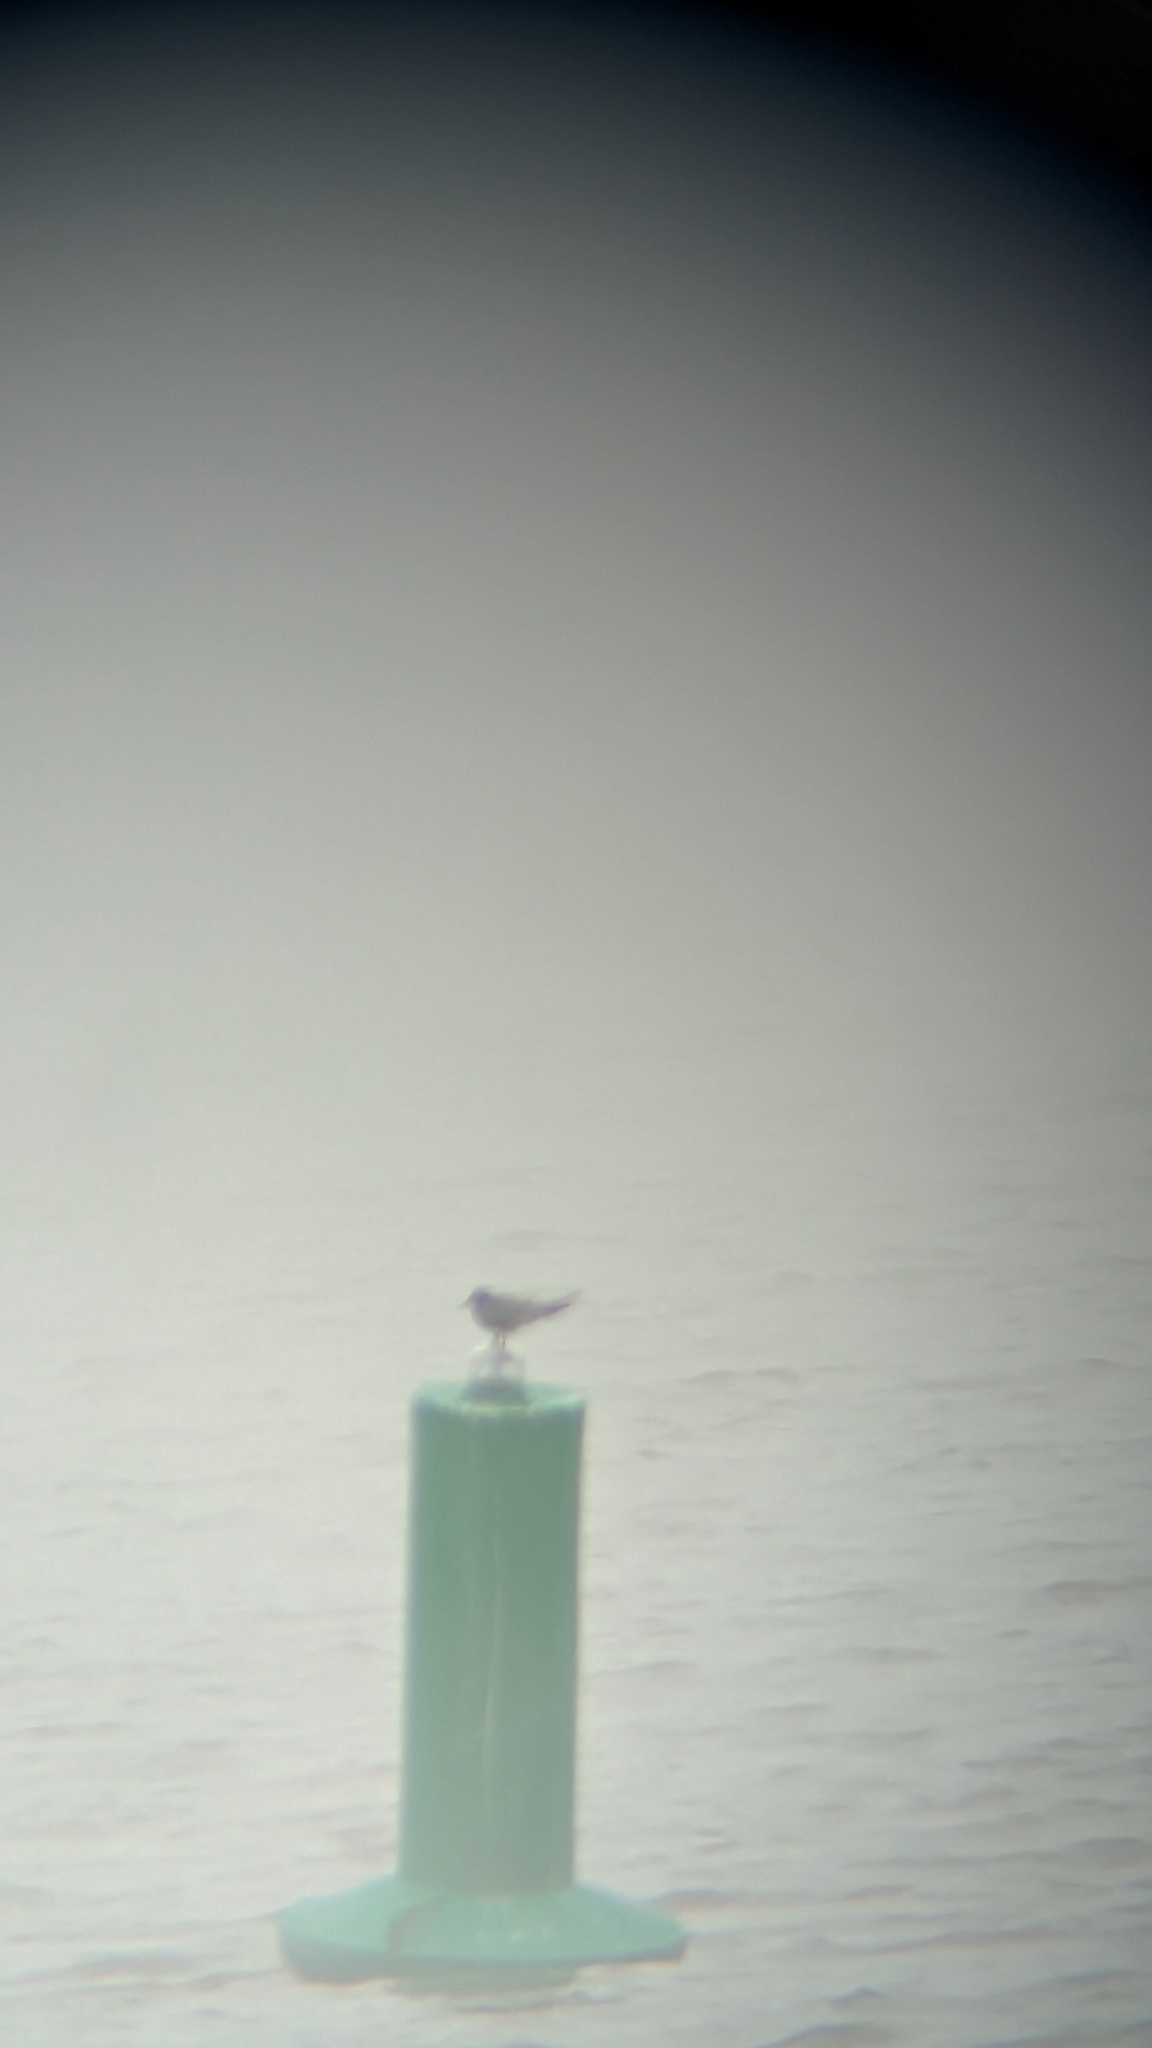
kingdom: Animalia
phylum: Chordata
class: Aves
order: Charadriiformes
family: Laridae
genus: Chlidonias
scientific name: Chlidonias niger
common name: Black tern
